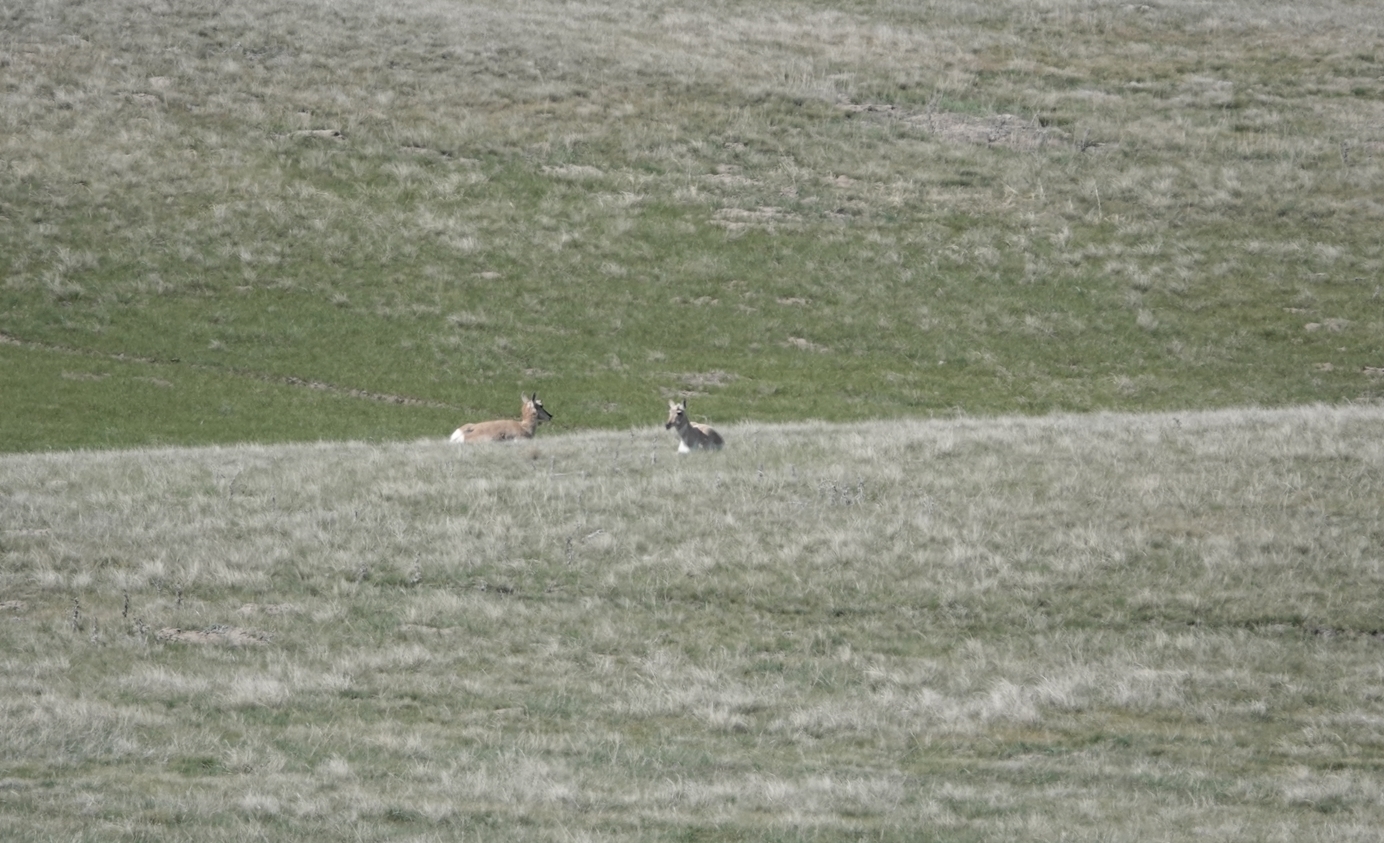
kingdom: Animalia
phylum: Chordata
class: Mammalia
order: Artiodactyla
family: Antilocapridae
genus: Antilocapra
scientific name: Antilocapra americana
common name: Pronghorn
